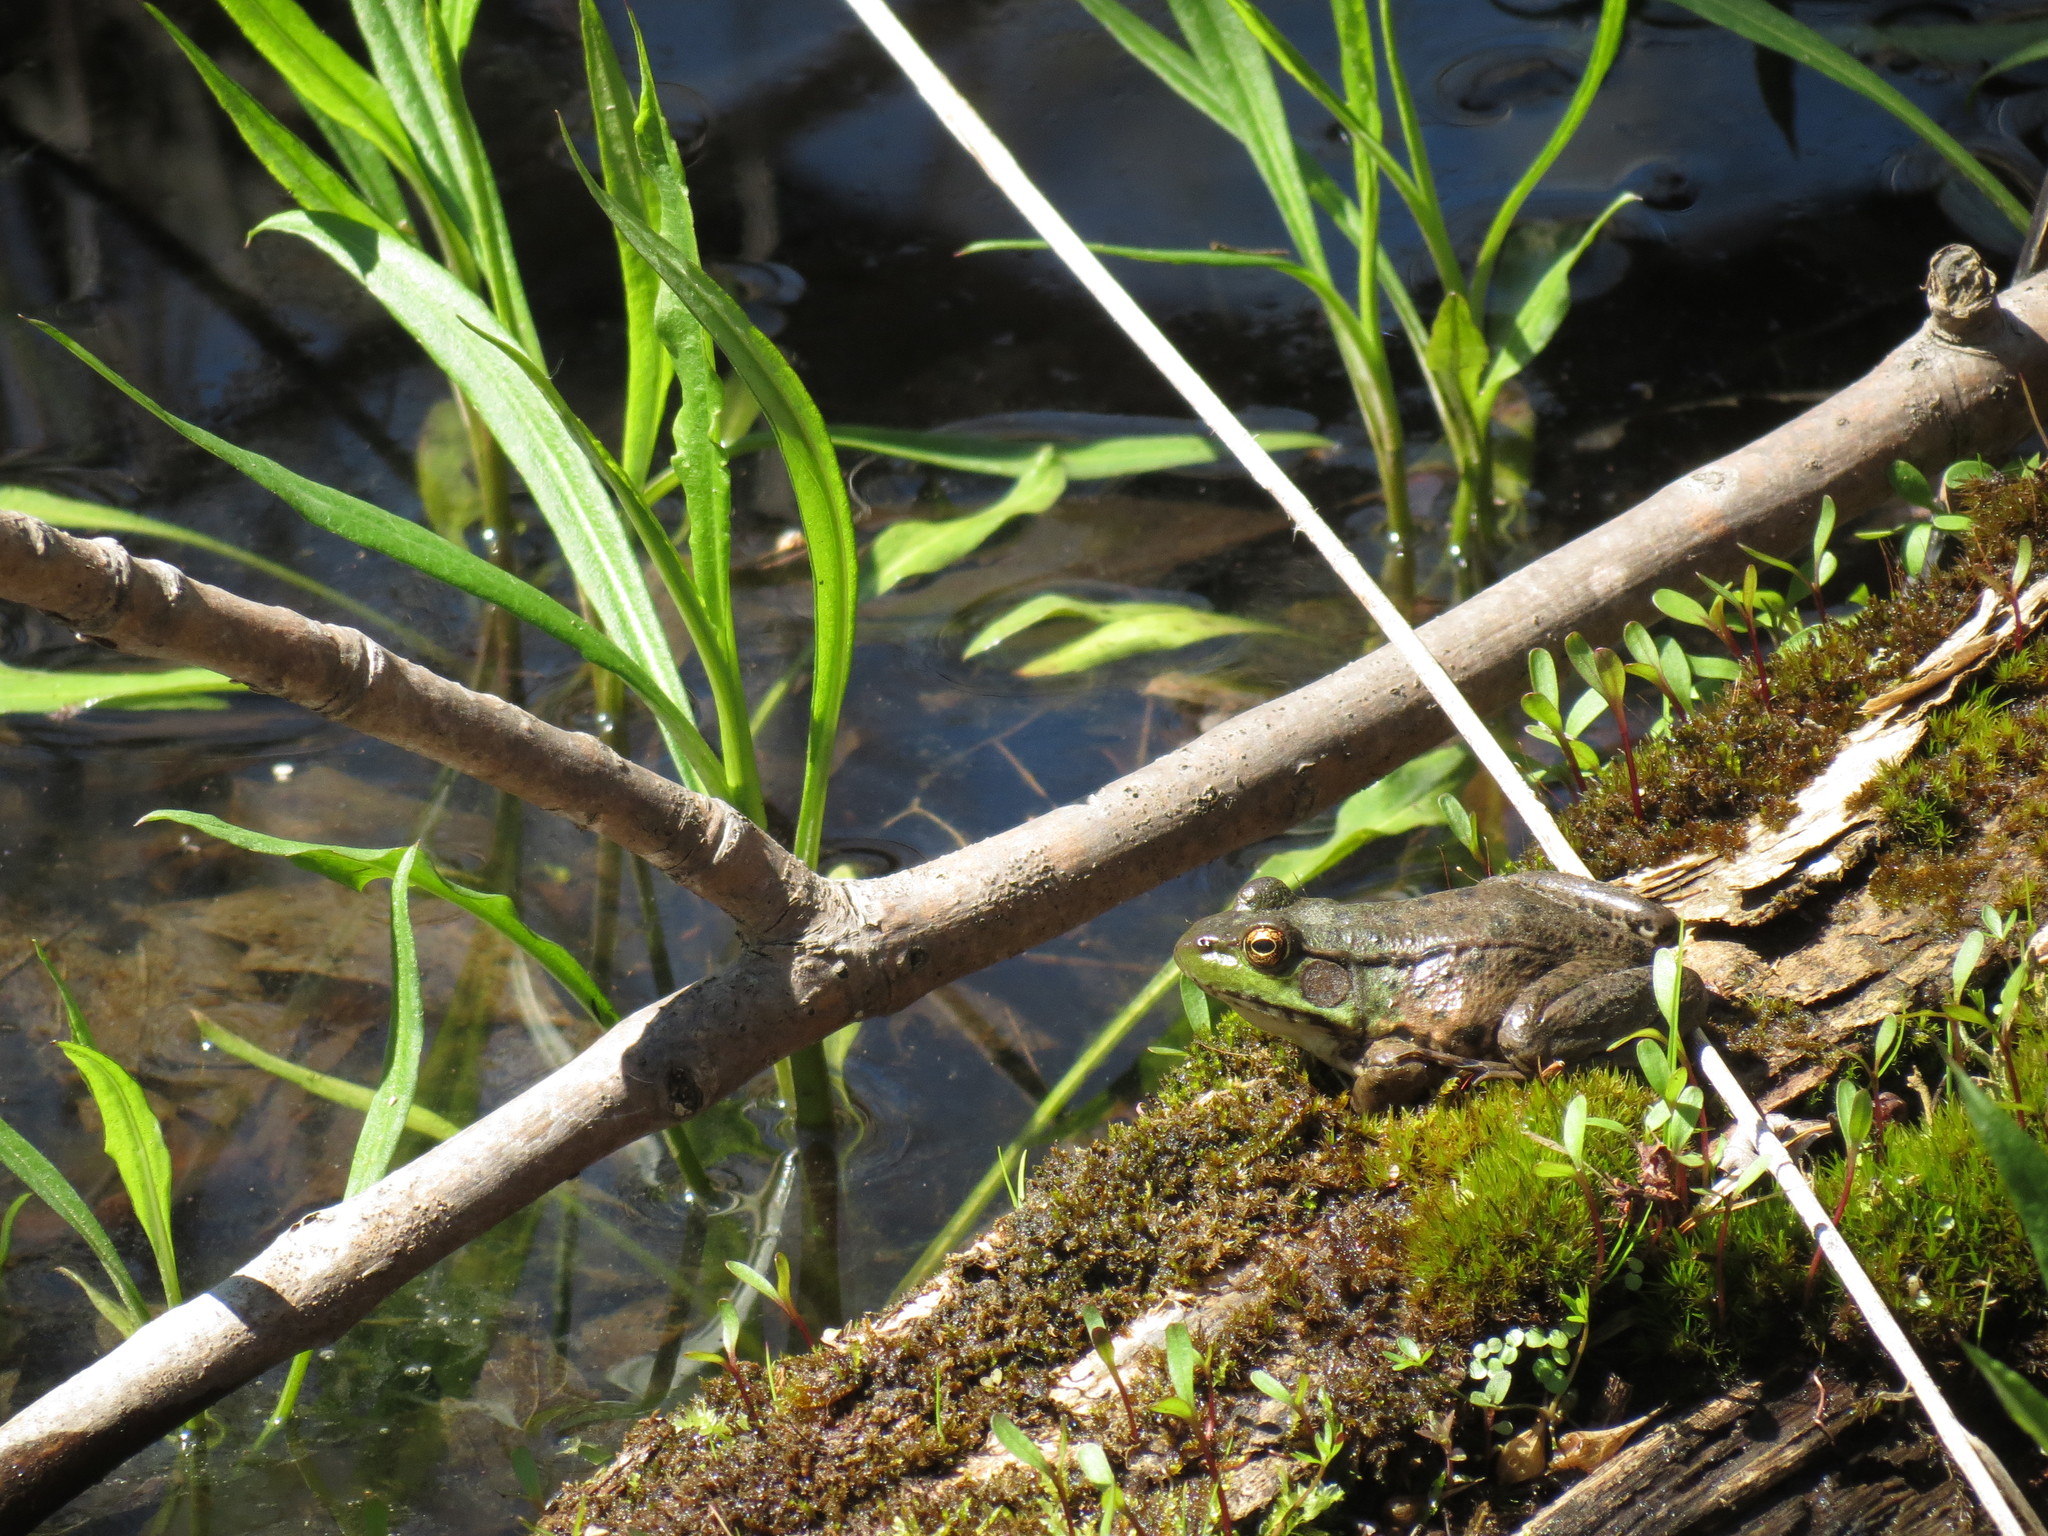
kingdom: Animalia
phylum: Chordata
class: Amphibia
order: Anura
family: Ranidae
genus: Lithobates
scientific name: Lithobates clamitans
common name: Green frog
